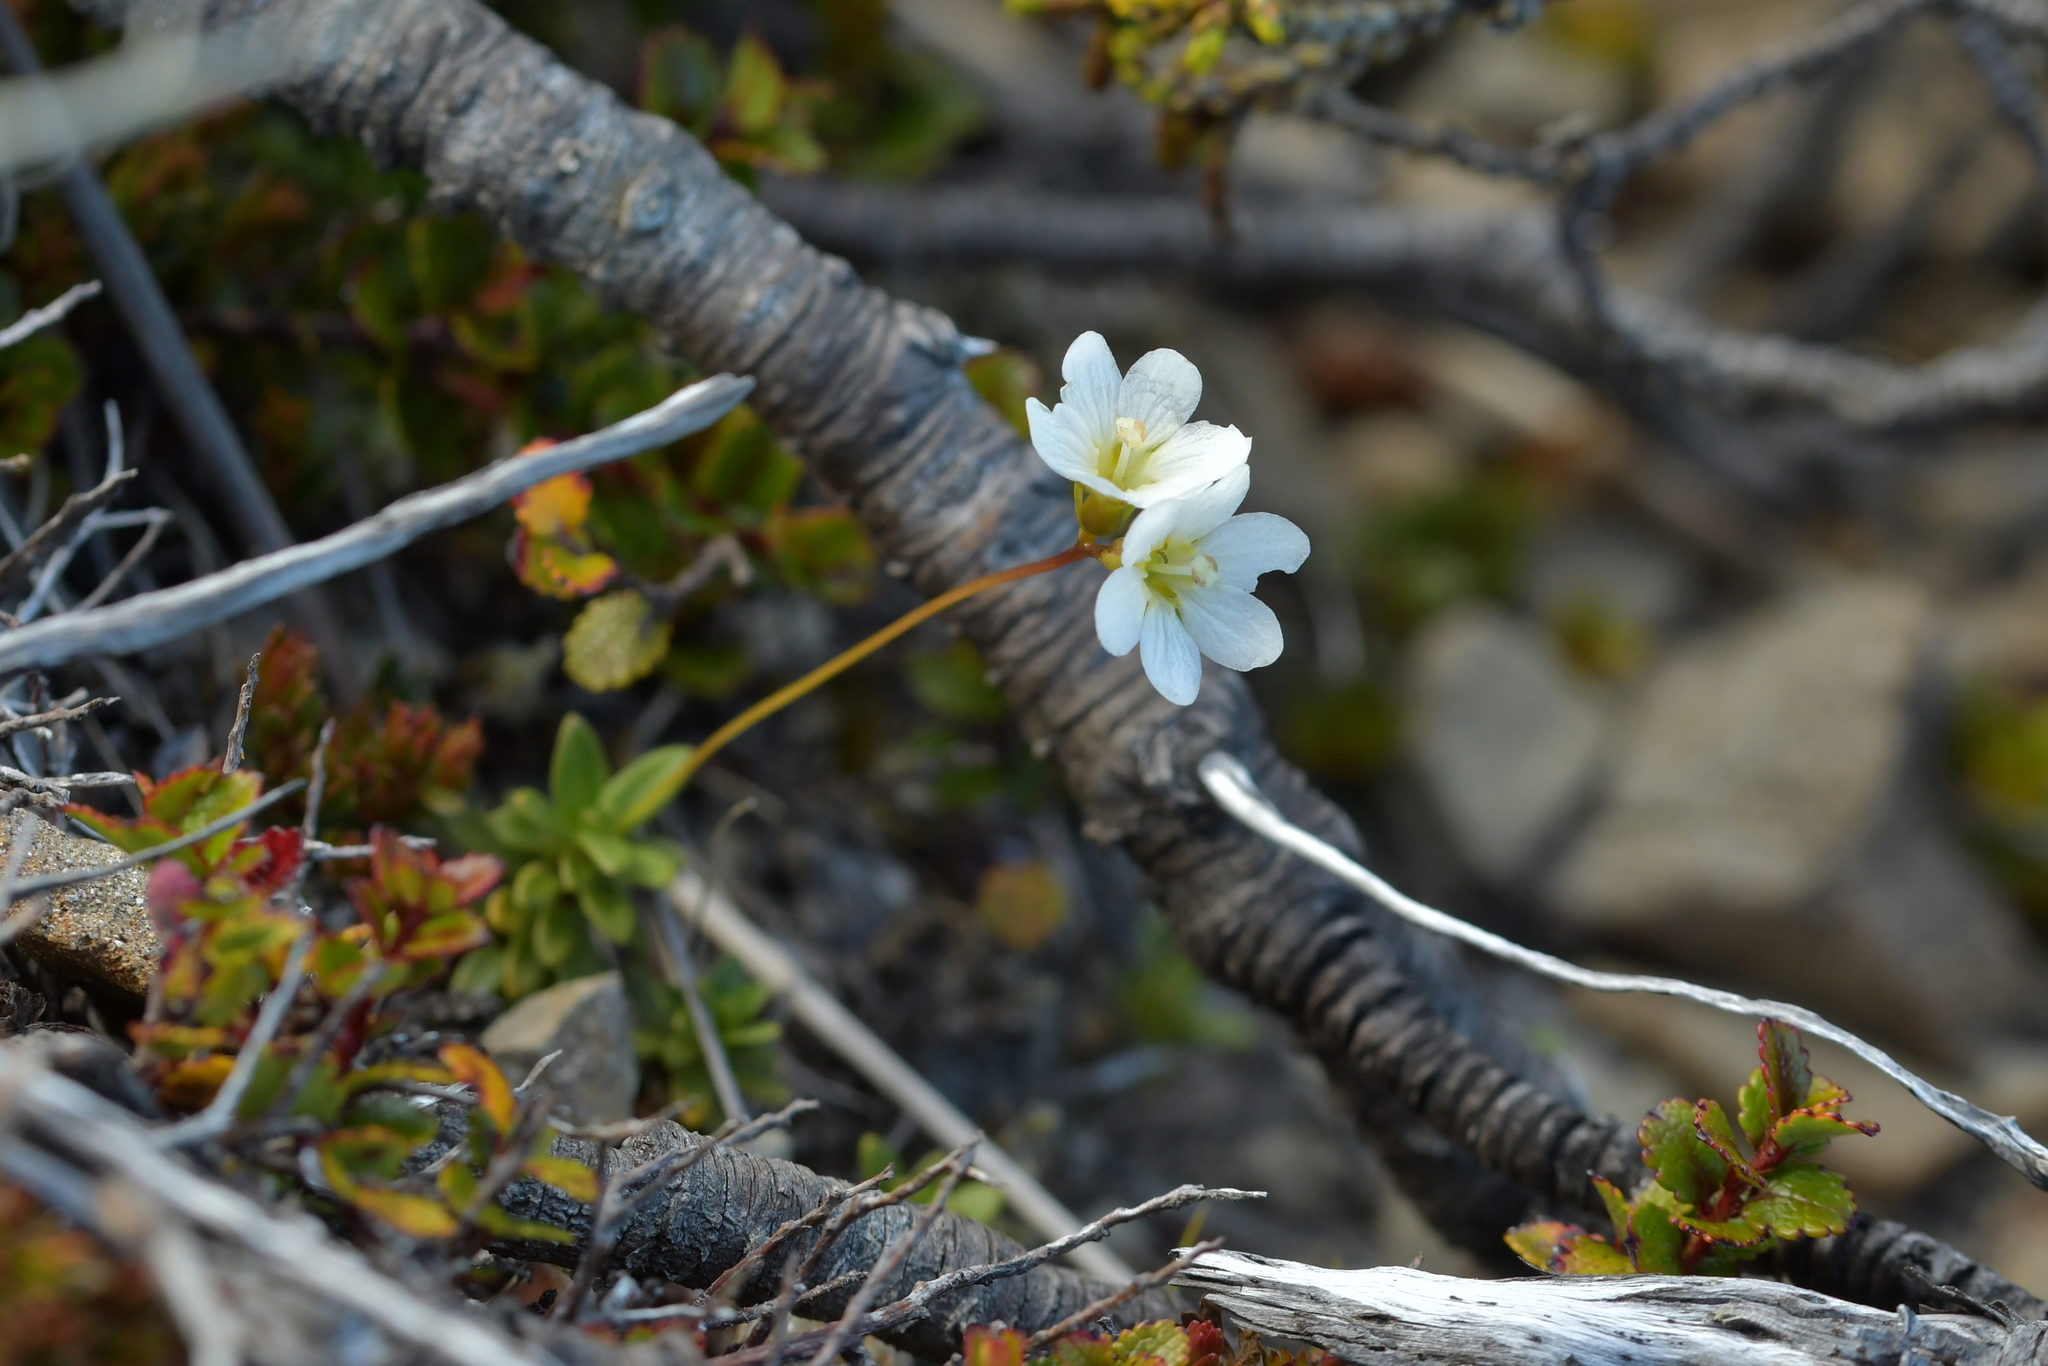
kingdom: Plantae
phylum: Tracheophyta
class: Magnoliopsida
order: Asterales
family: Stylidiaceae
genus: Forstera
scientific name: Forstera tenella
